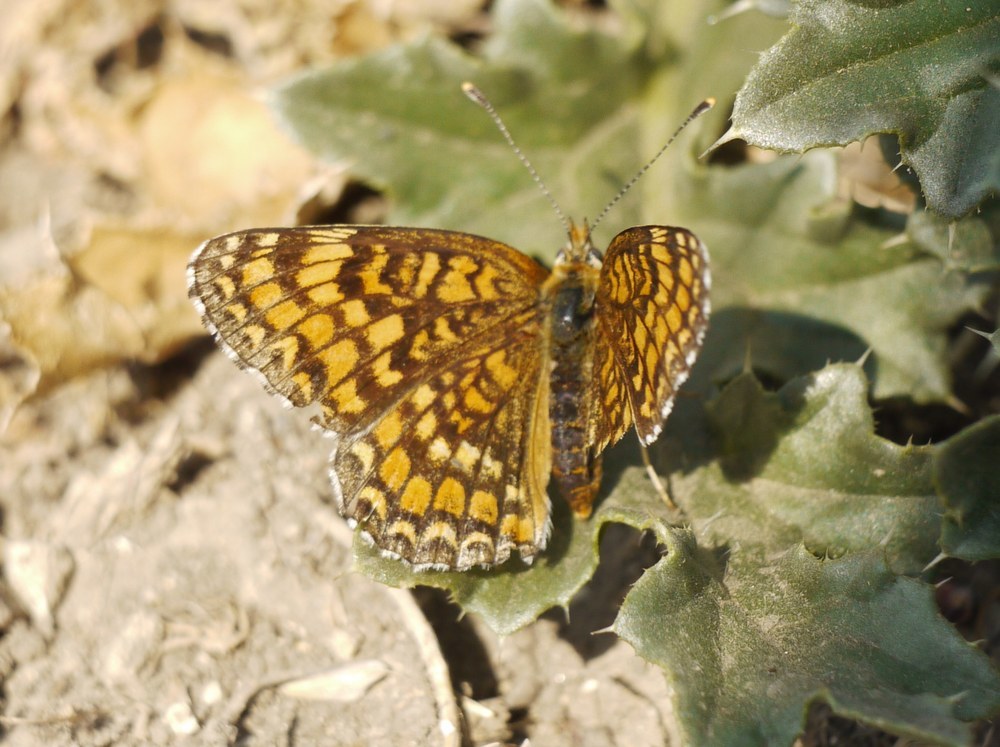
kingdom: Animalia
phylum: Arthropoda
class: Insecta
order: Lepidoptera
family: Nymphalidae
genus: Melitaea
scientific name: Melitaea phoebe
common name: Knapweed fritillary
